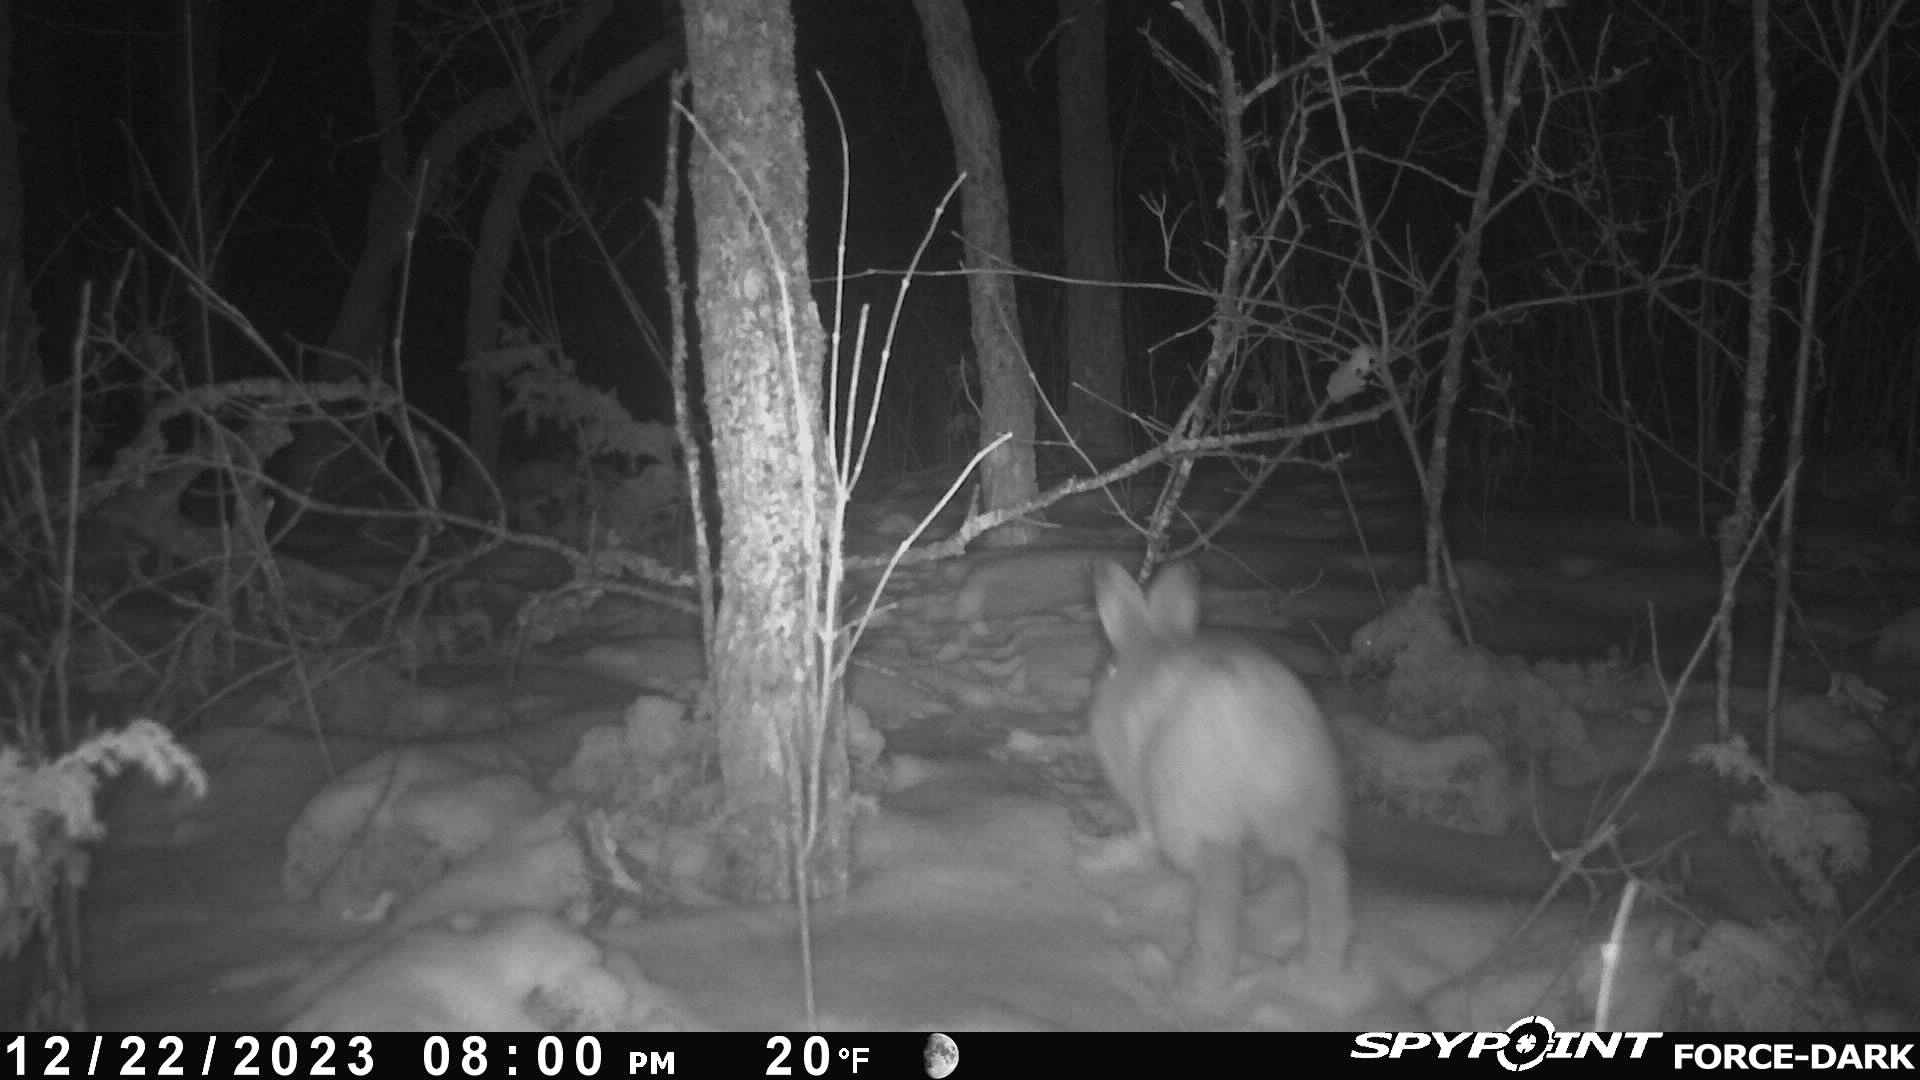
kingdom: Animalia
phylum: Chordata
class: Mammalia
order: Lagomorpha
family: Leporidae
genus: Lepus
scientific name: Lepus americanus
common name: Snowshoe hare
